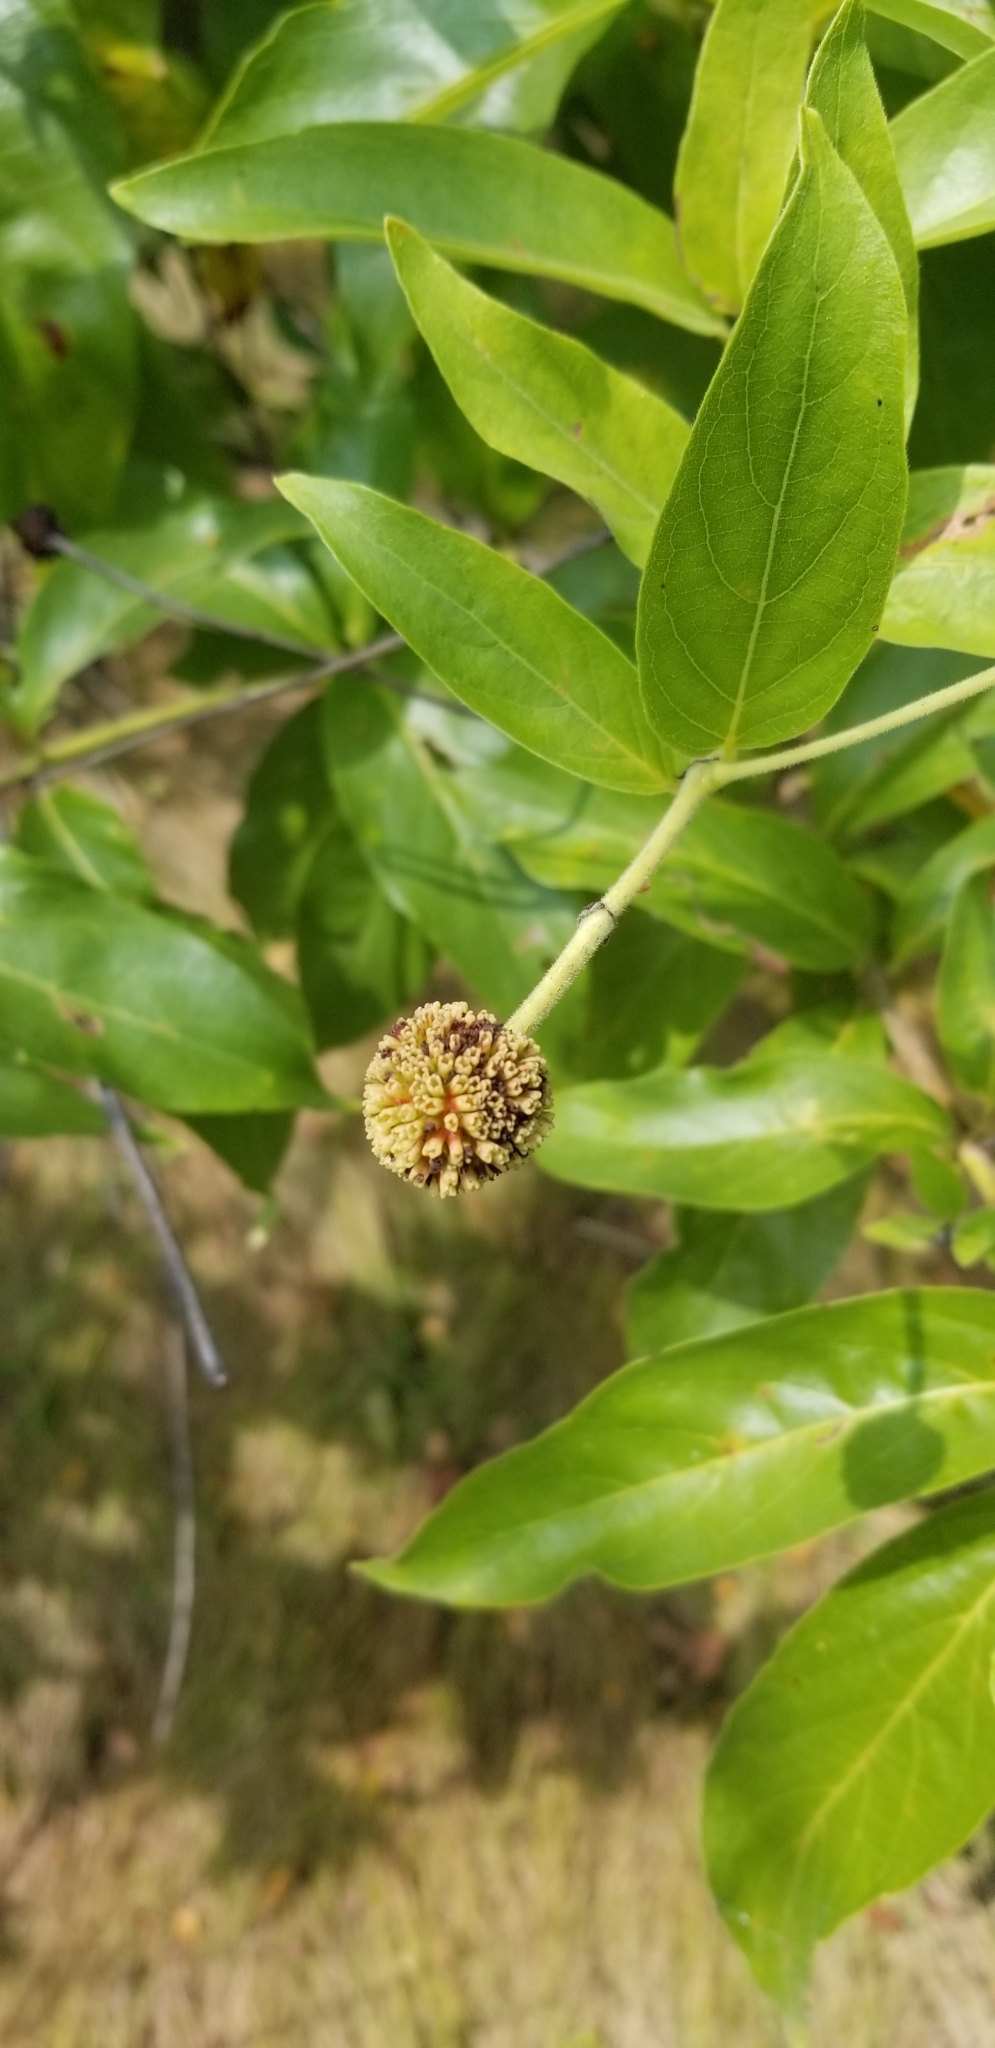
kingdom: Plantae
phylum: Tracheophyta
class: Magnoliopsida
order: Gentianales
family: Rubiaceae
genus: Cephalanthus
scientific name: Cephalanthus occidentalis
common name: Button-willow
